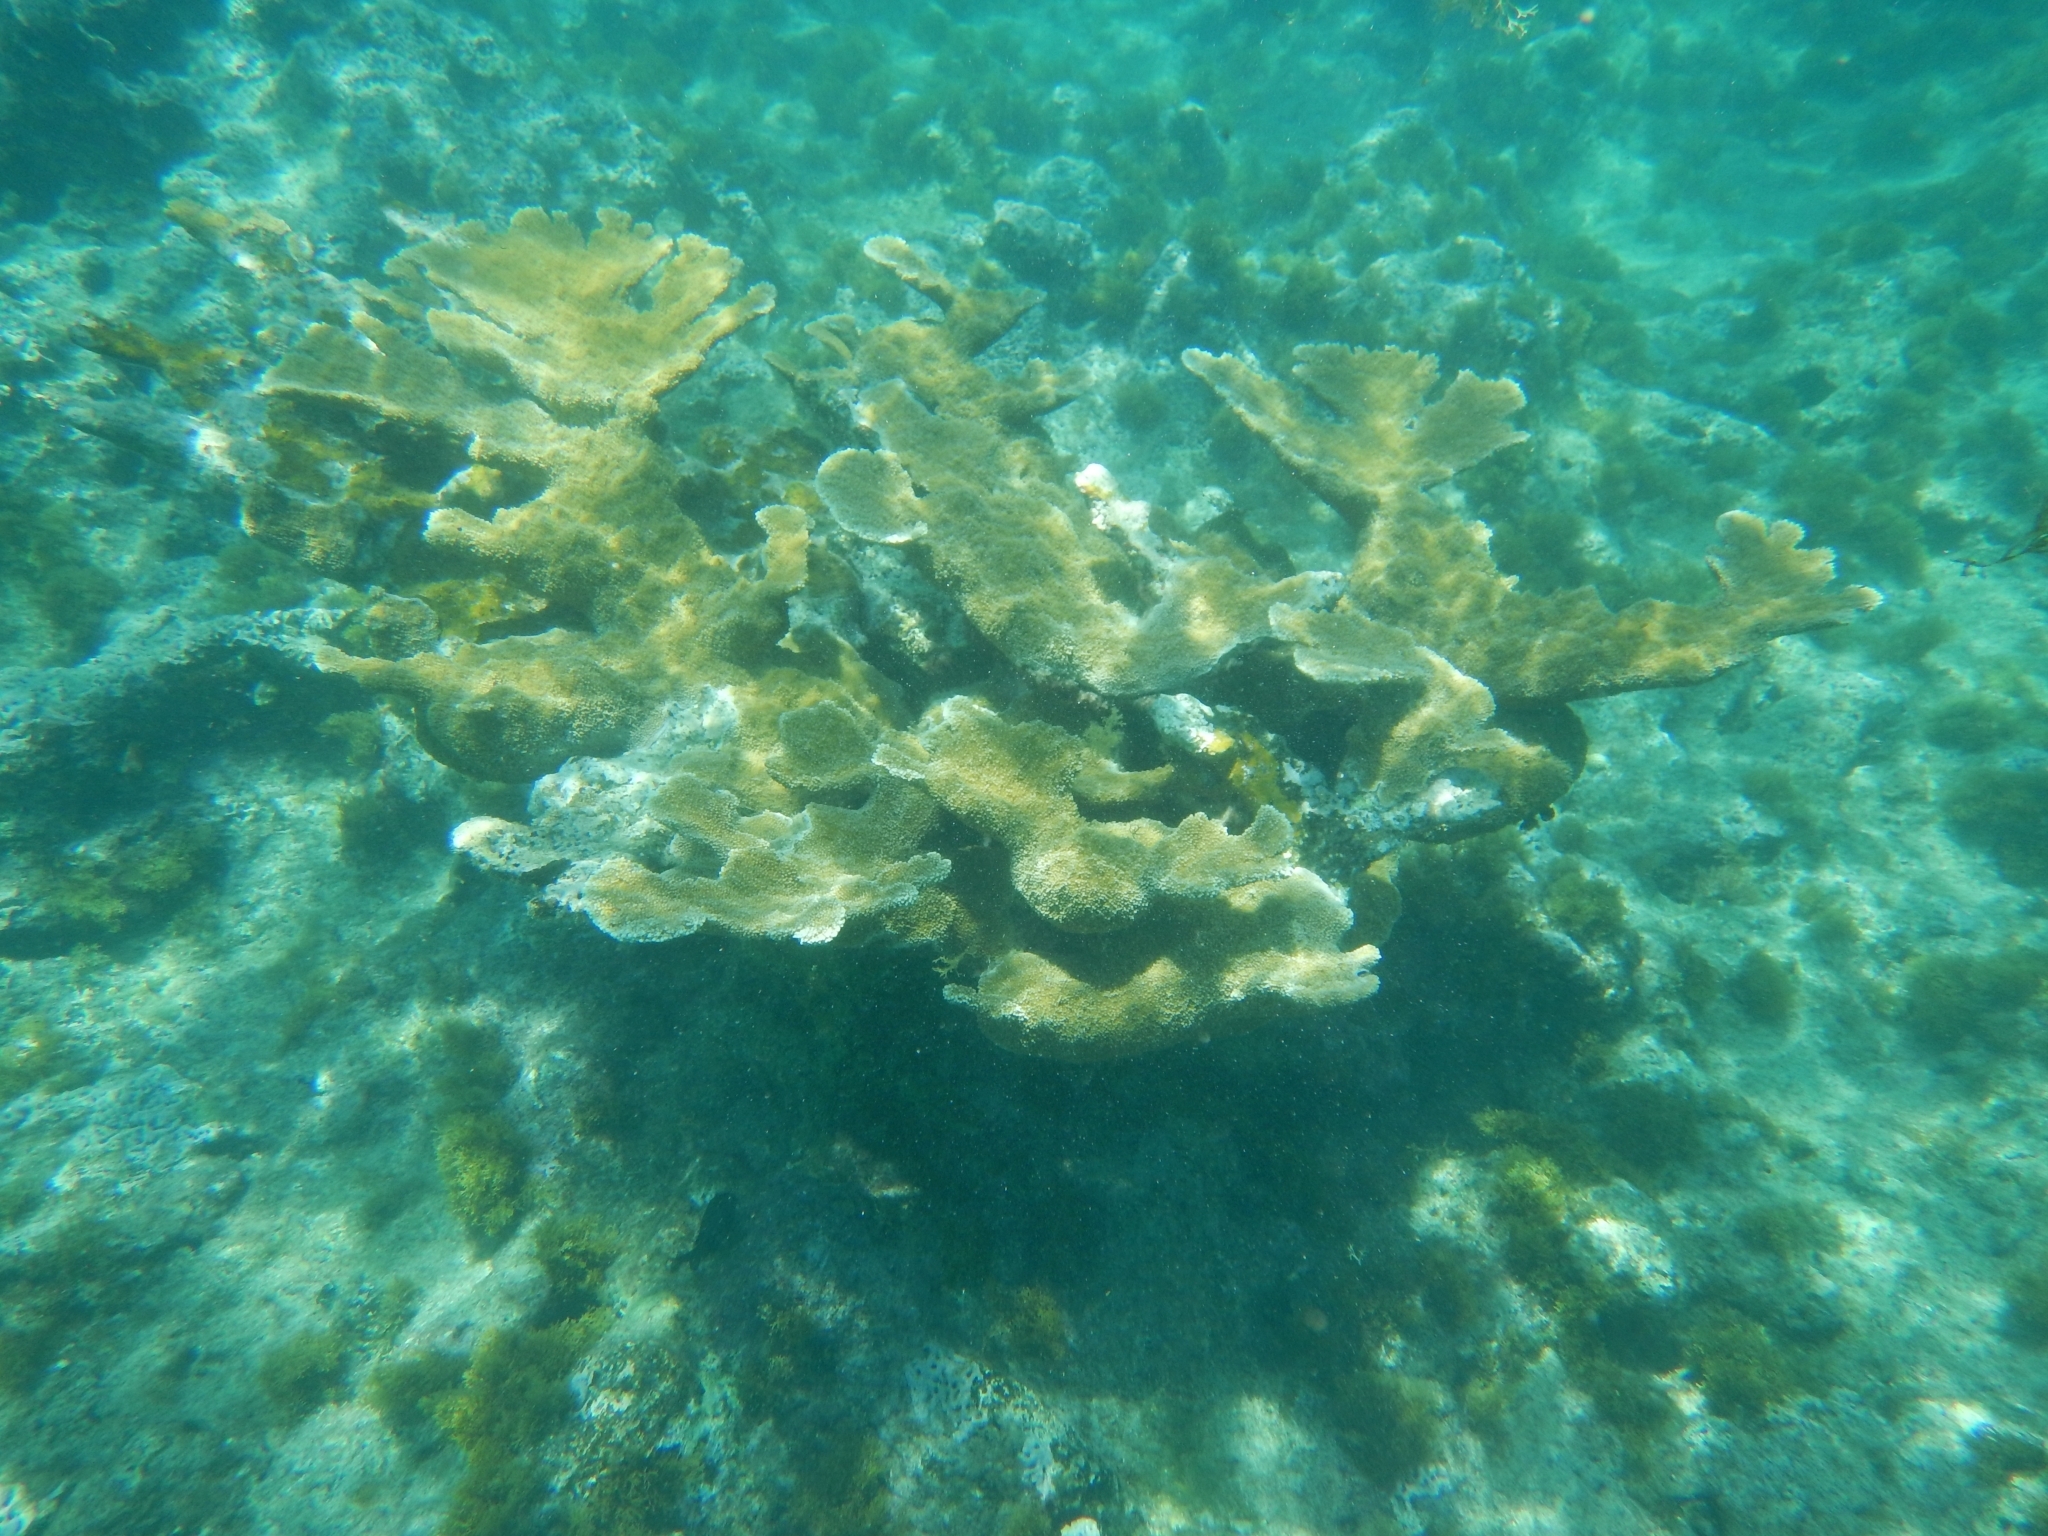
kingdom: Animalia
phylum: Cnidaria
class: Anthozoa
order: Scleractinia
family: Acroporidae
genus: Acropora
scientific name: Acropora palmata
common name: Elkhorn coral
